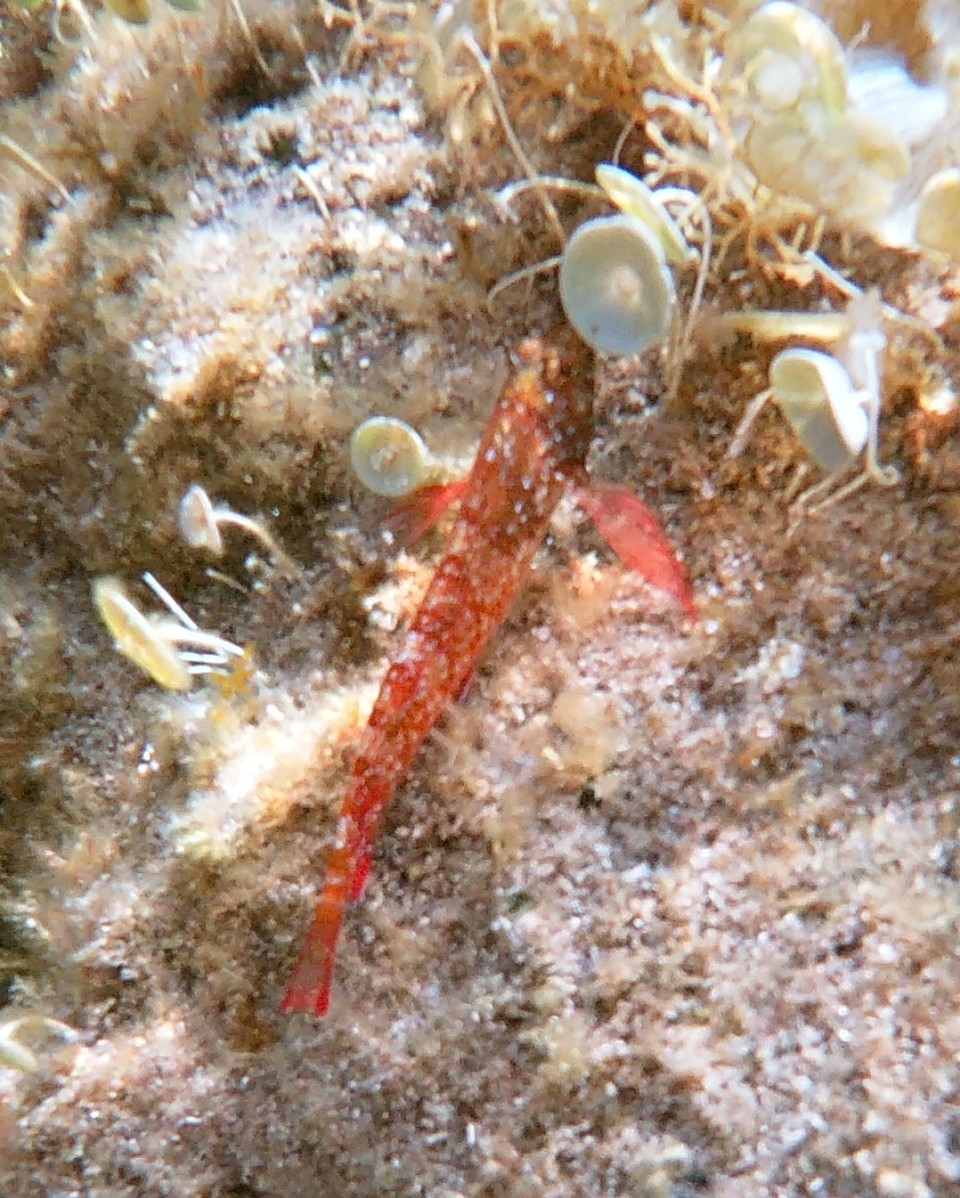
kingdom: Animalia
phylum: Chordata
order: Perciformes
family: Tripterygiidae
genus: Tripterygion
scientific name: Tripterygion tripteronotum
